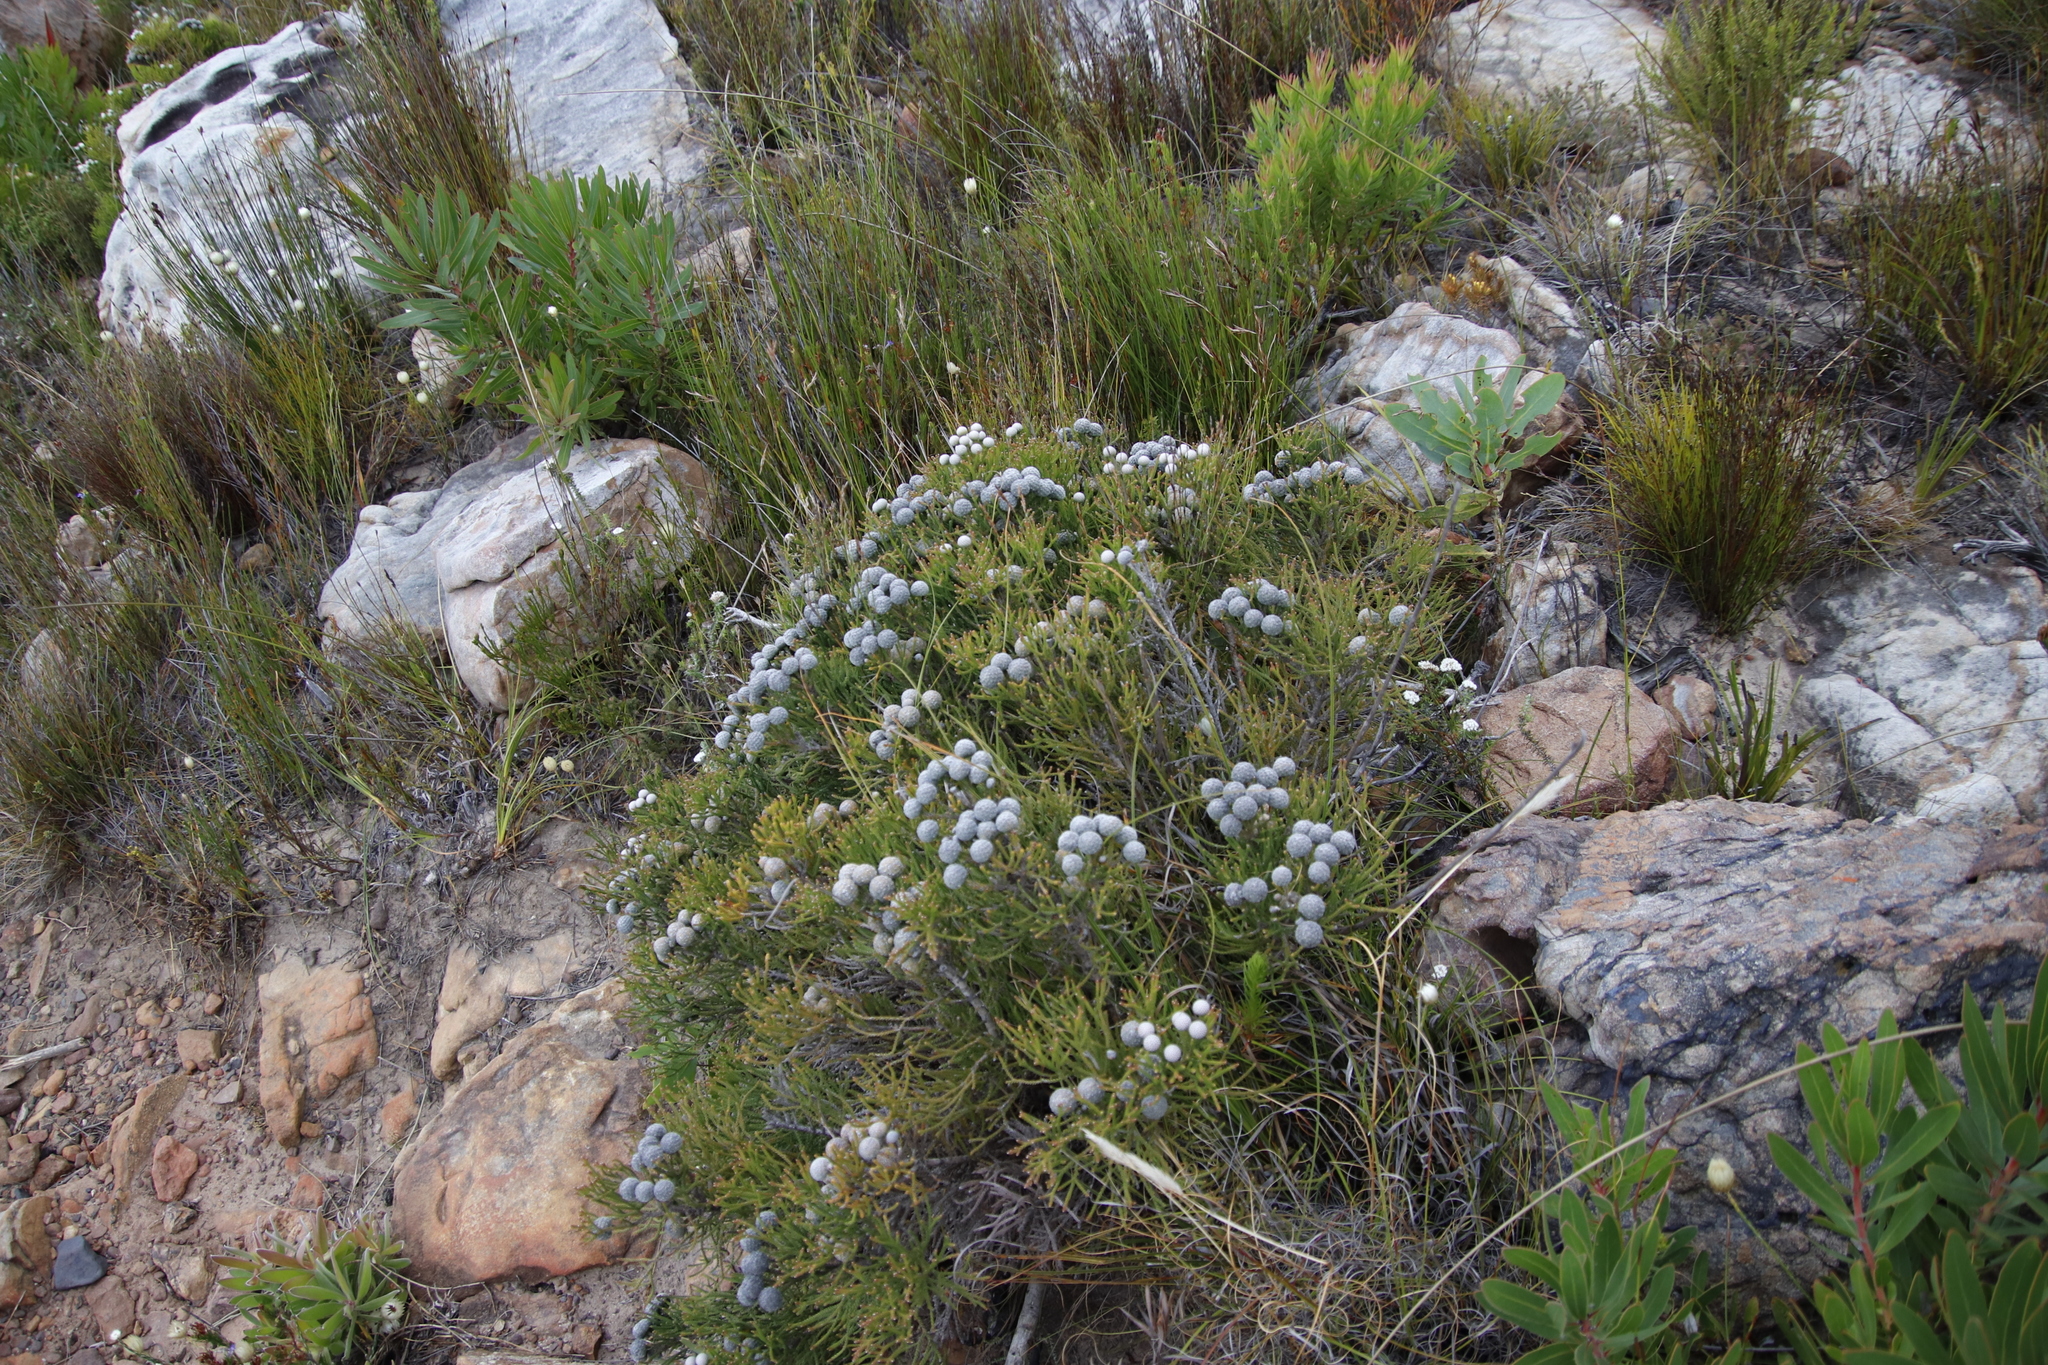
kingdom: Plantae
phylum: Tracheophyta
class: Magnoliopsida
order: Bruniales
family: Bruniaceae
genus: Brunia
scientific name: Brunia noduliflora
